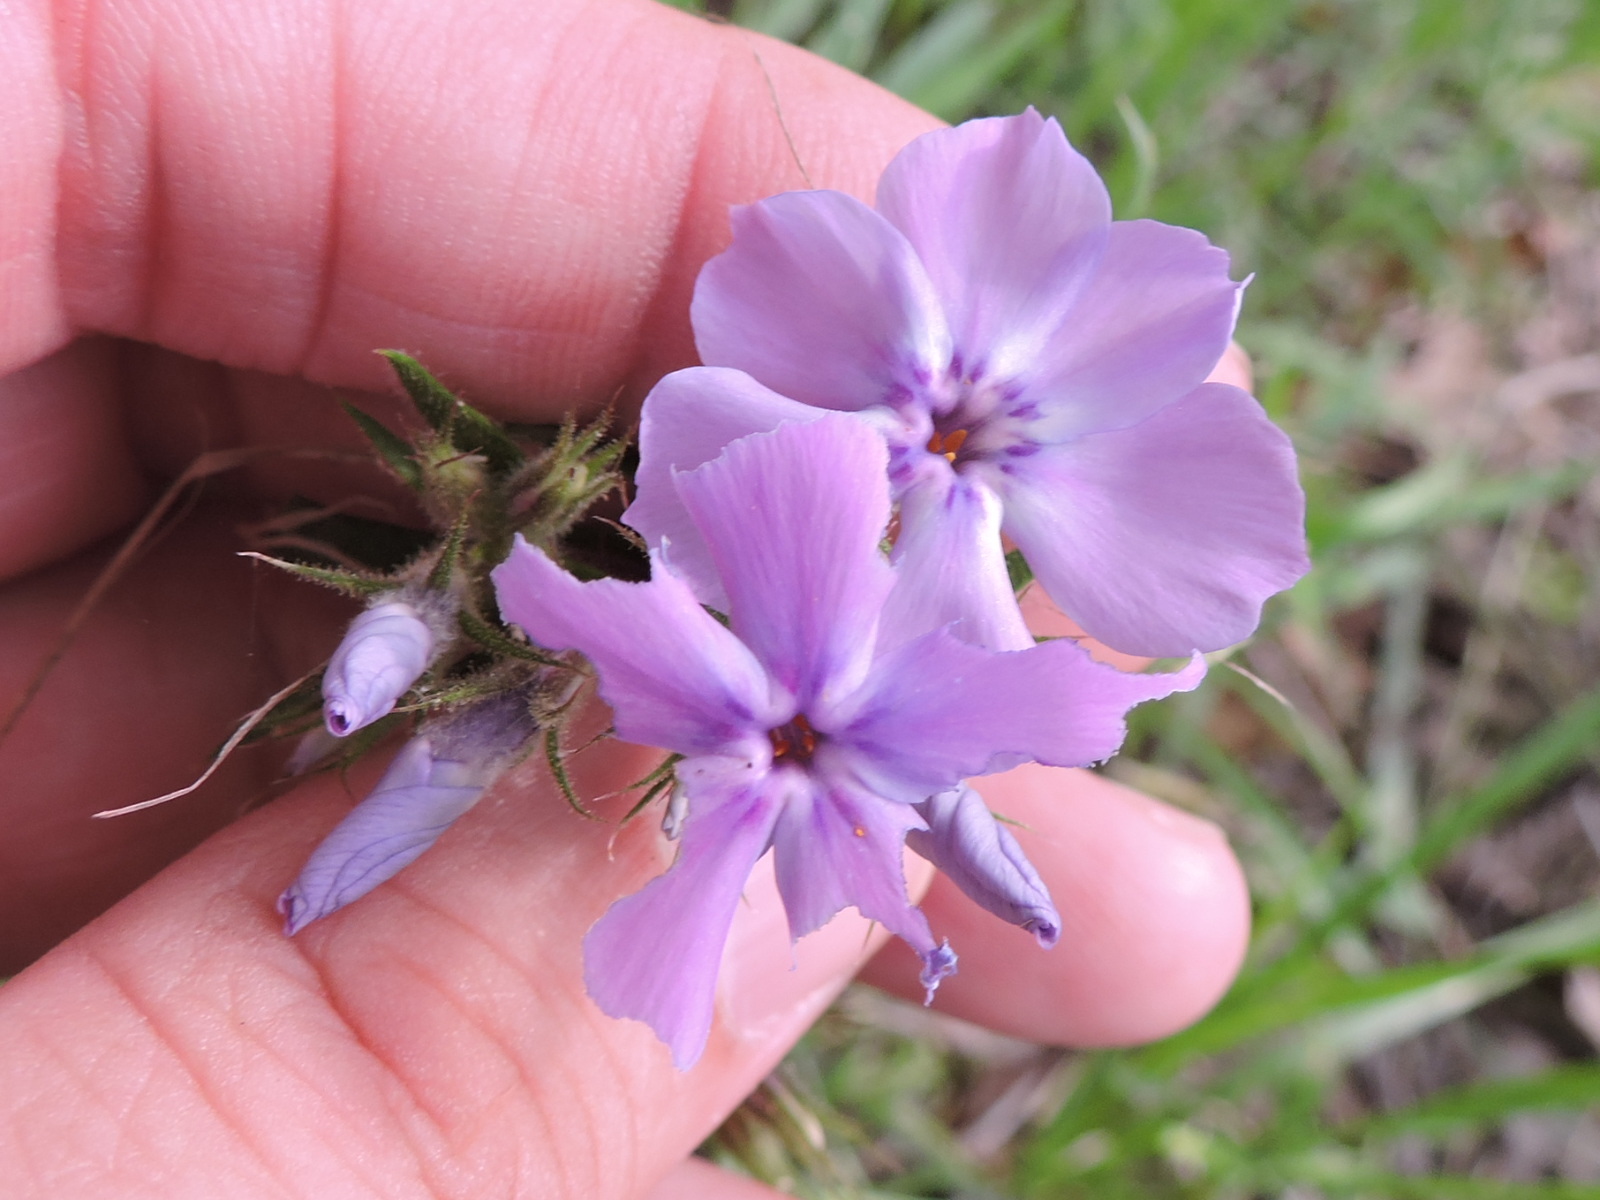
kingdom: Plantae
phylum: Tracheophyta
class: Magnoliopsida
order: Ericales
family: Polemoniaceae
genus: Phlox
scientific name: Phlox pilosa
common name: Prairie phlox
